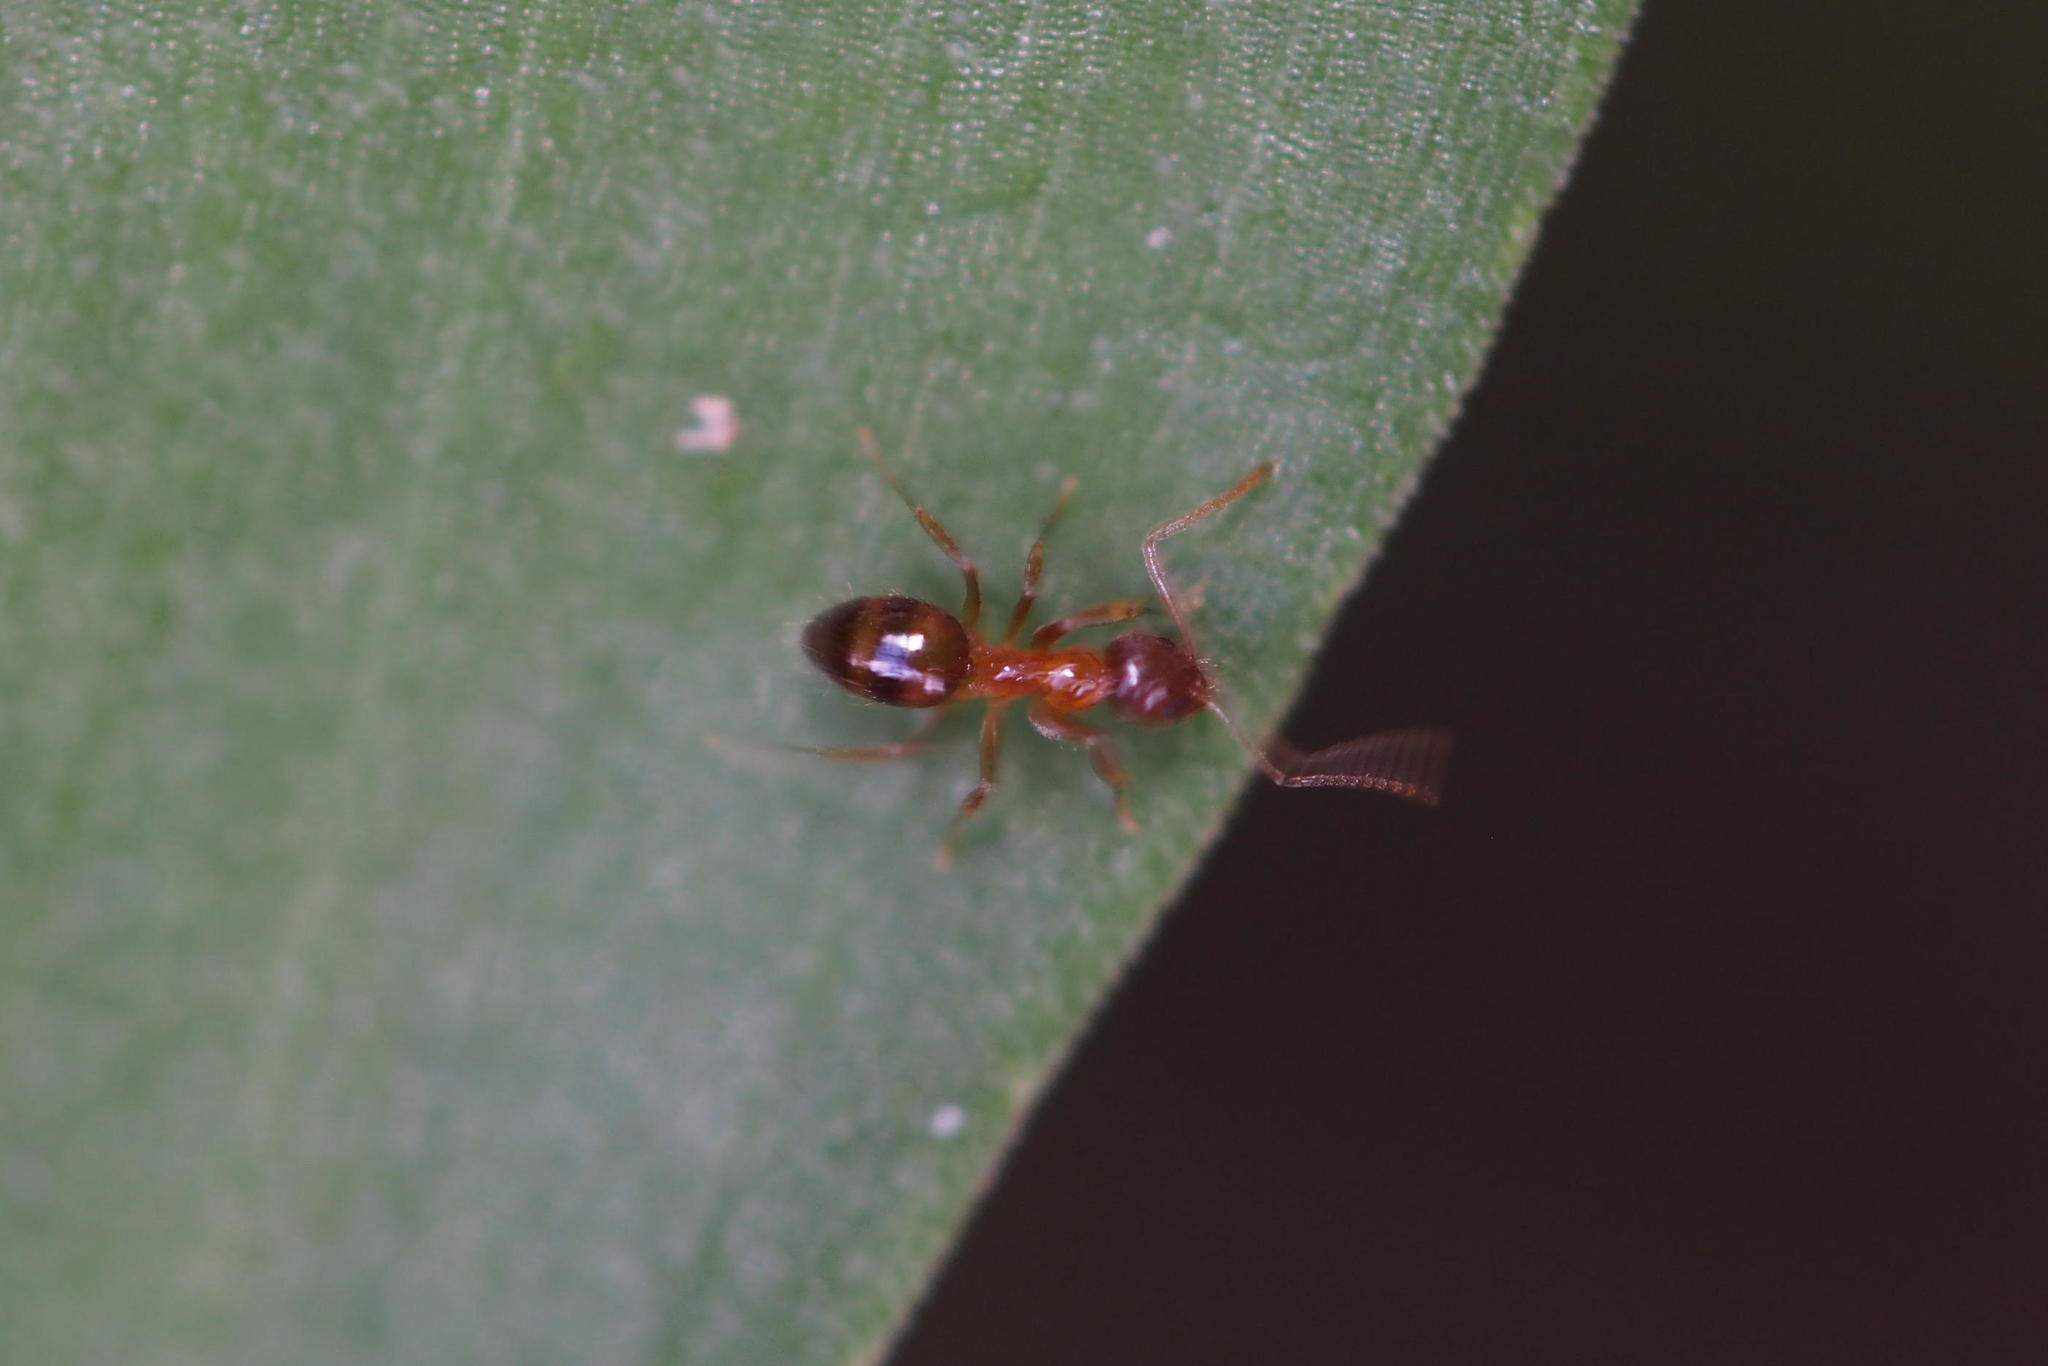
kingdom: Animalia
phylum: Arthropoda
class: Insecta
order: Hymenoptera
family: Formicidae
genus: Paratrechina
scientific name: Paratrechina flavipes
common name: Eastern asian formicine ant
